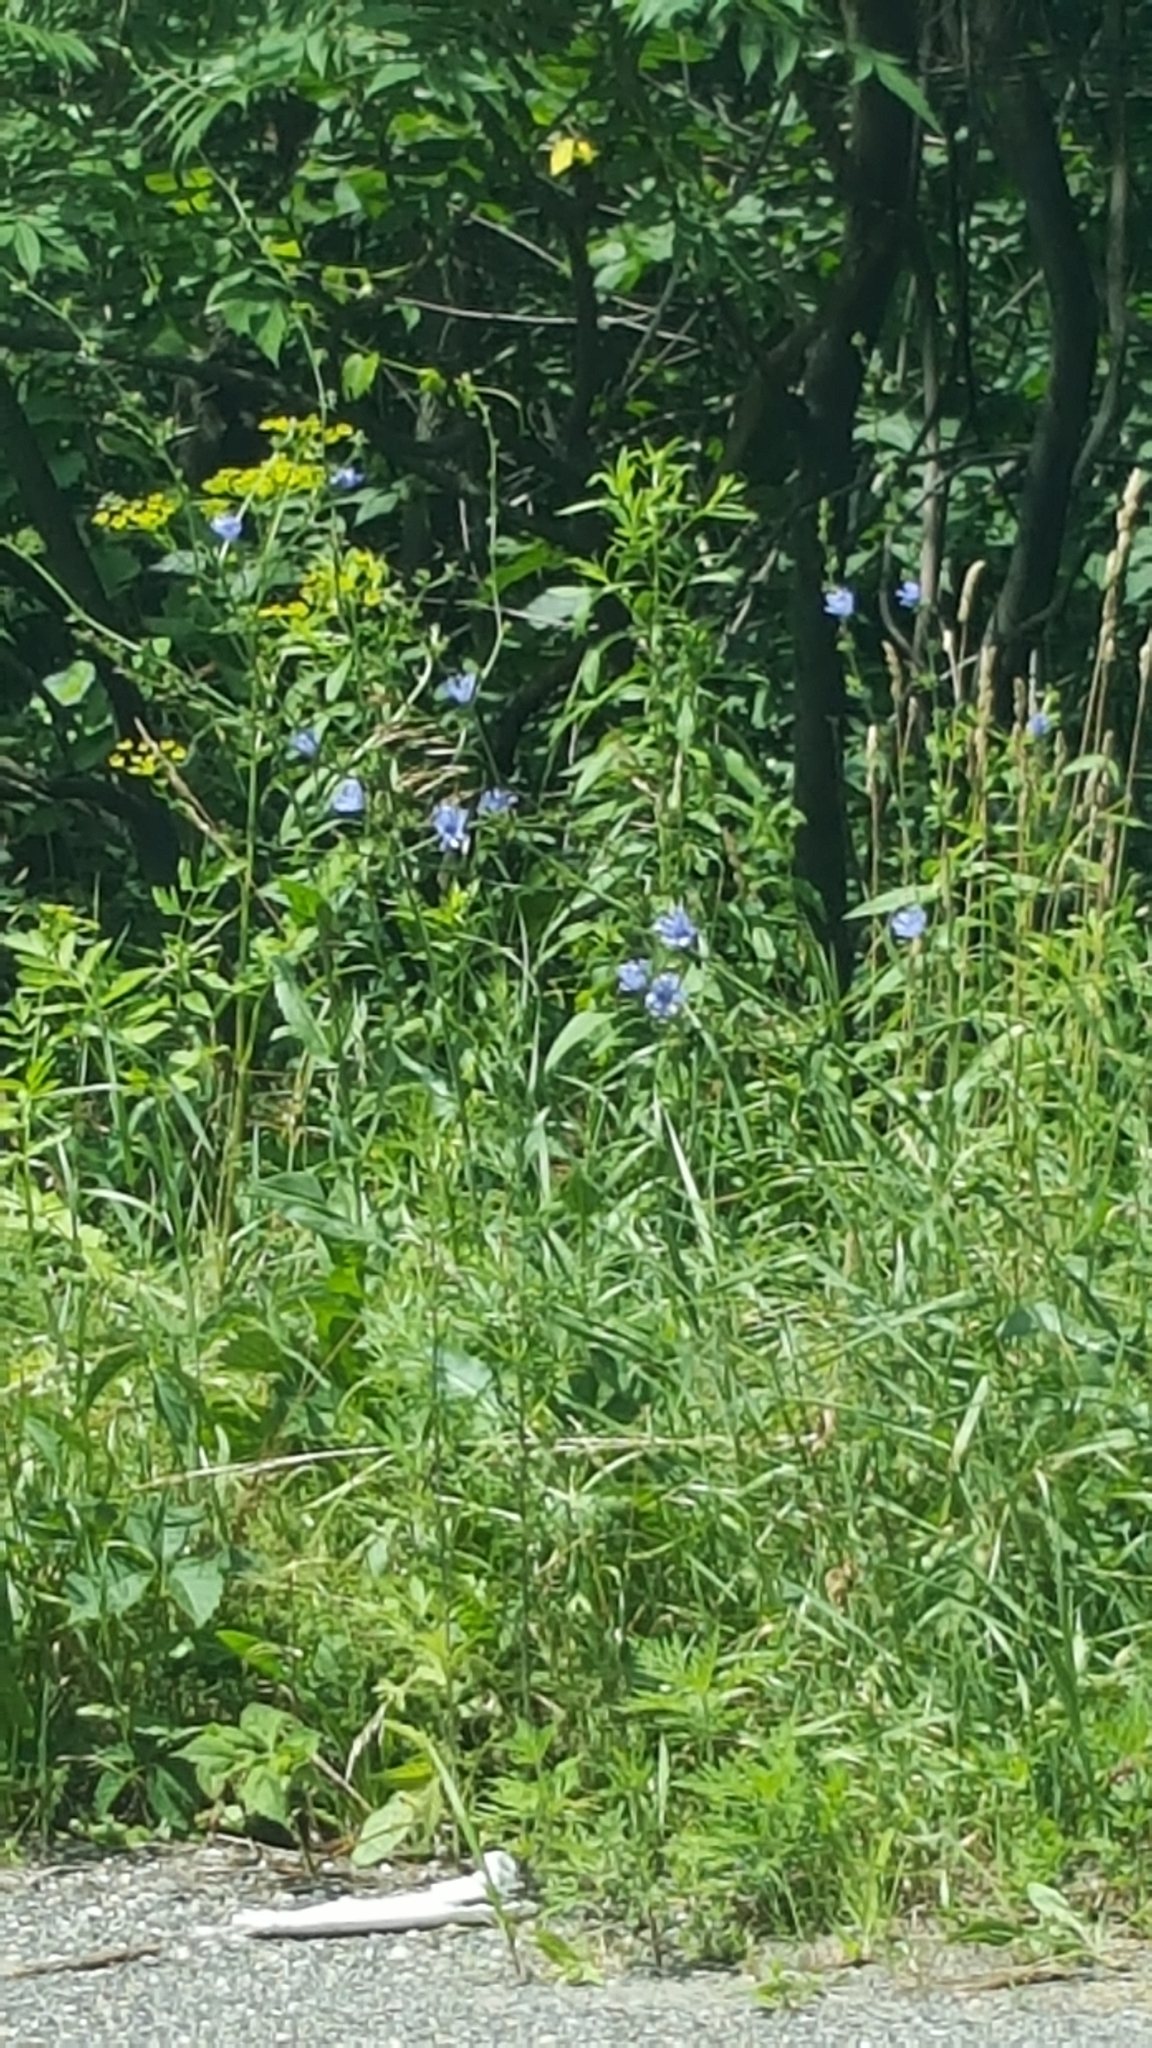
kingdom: Plantae
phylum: Tracheophyta
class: Magnoliopsida
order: Asterales
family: Asteraceae
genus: Cichorium
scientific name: Cichorium intybus
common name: Chicory
